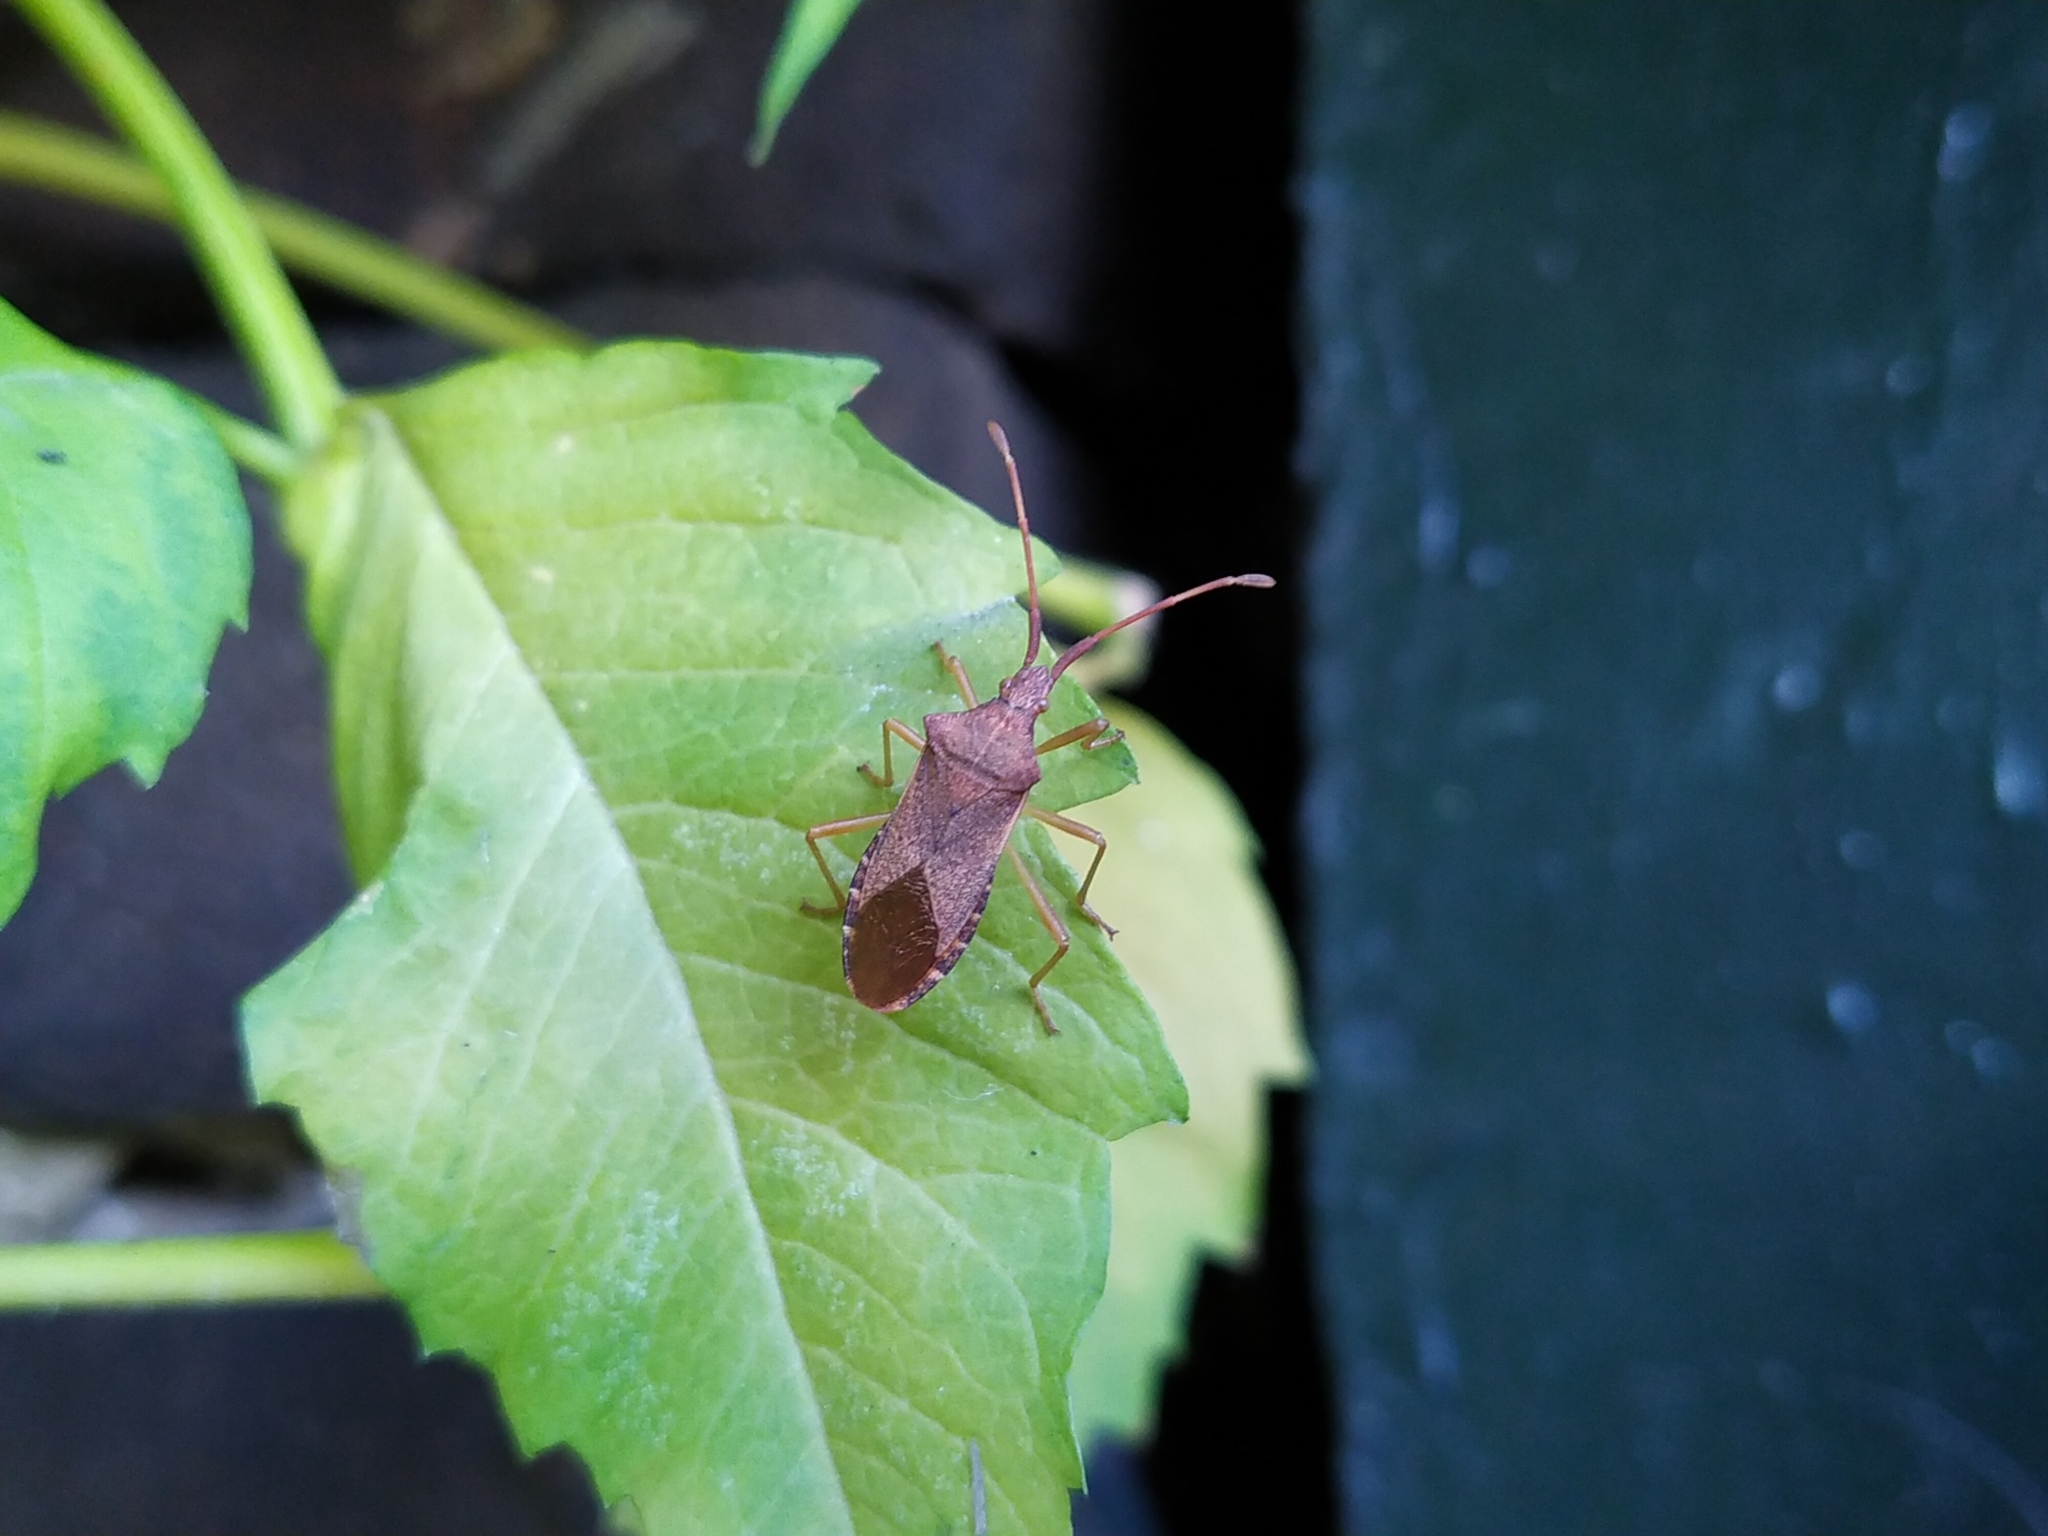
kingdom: Animalia
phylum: Arthropoda
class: Insecta
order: Hemiptera
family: Coreidae
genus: Gonocerus
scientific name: Gonocerus acuteangulatus
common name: Box bug
